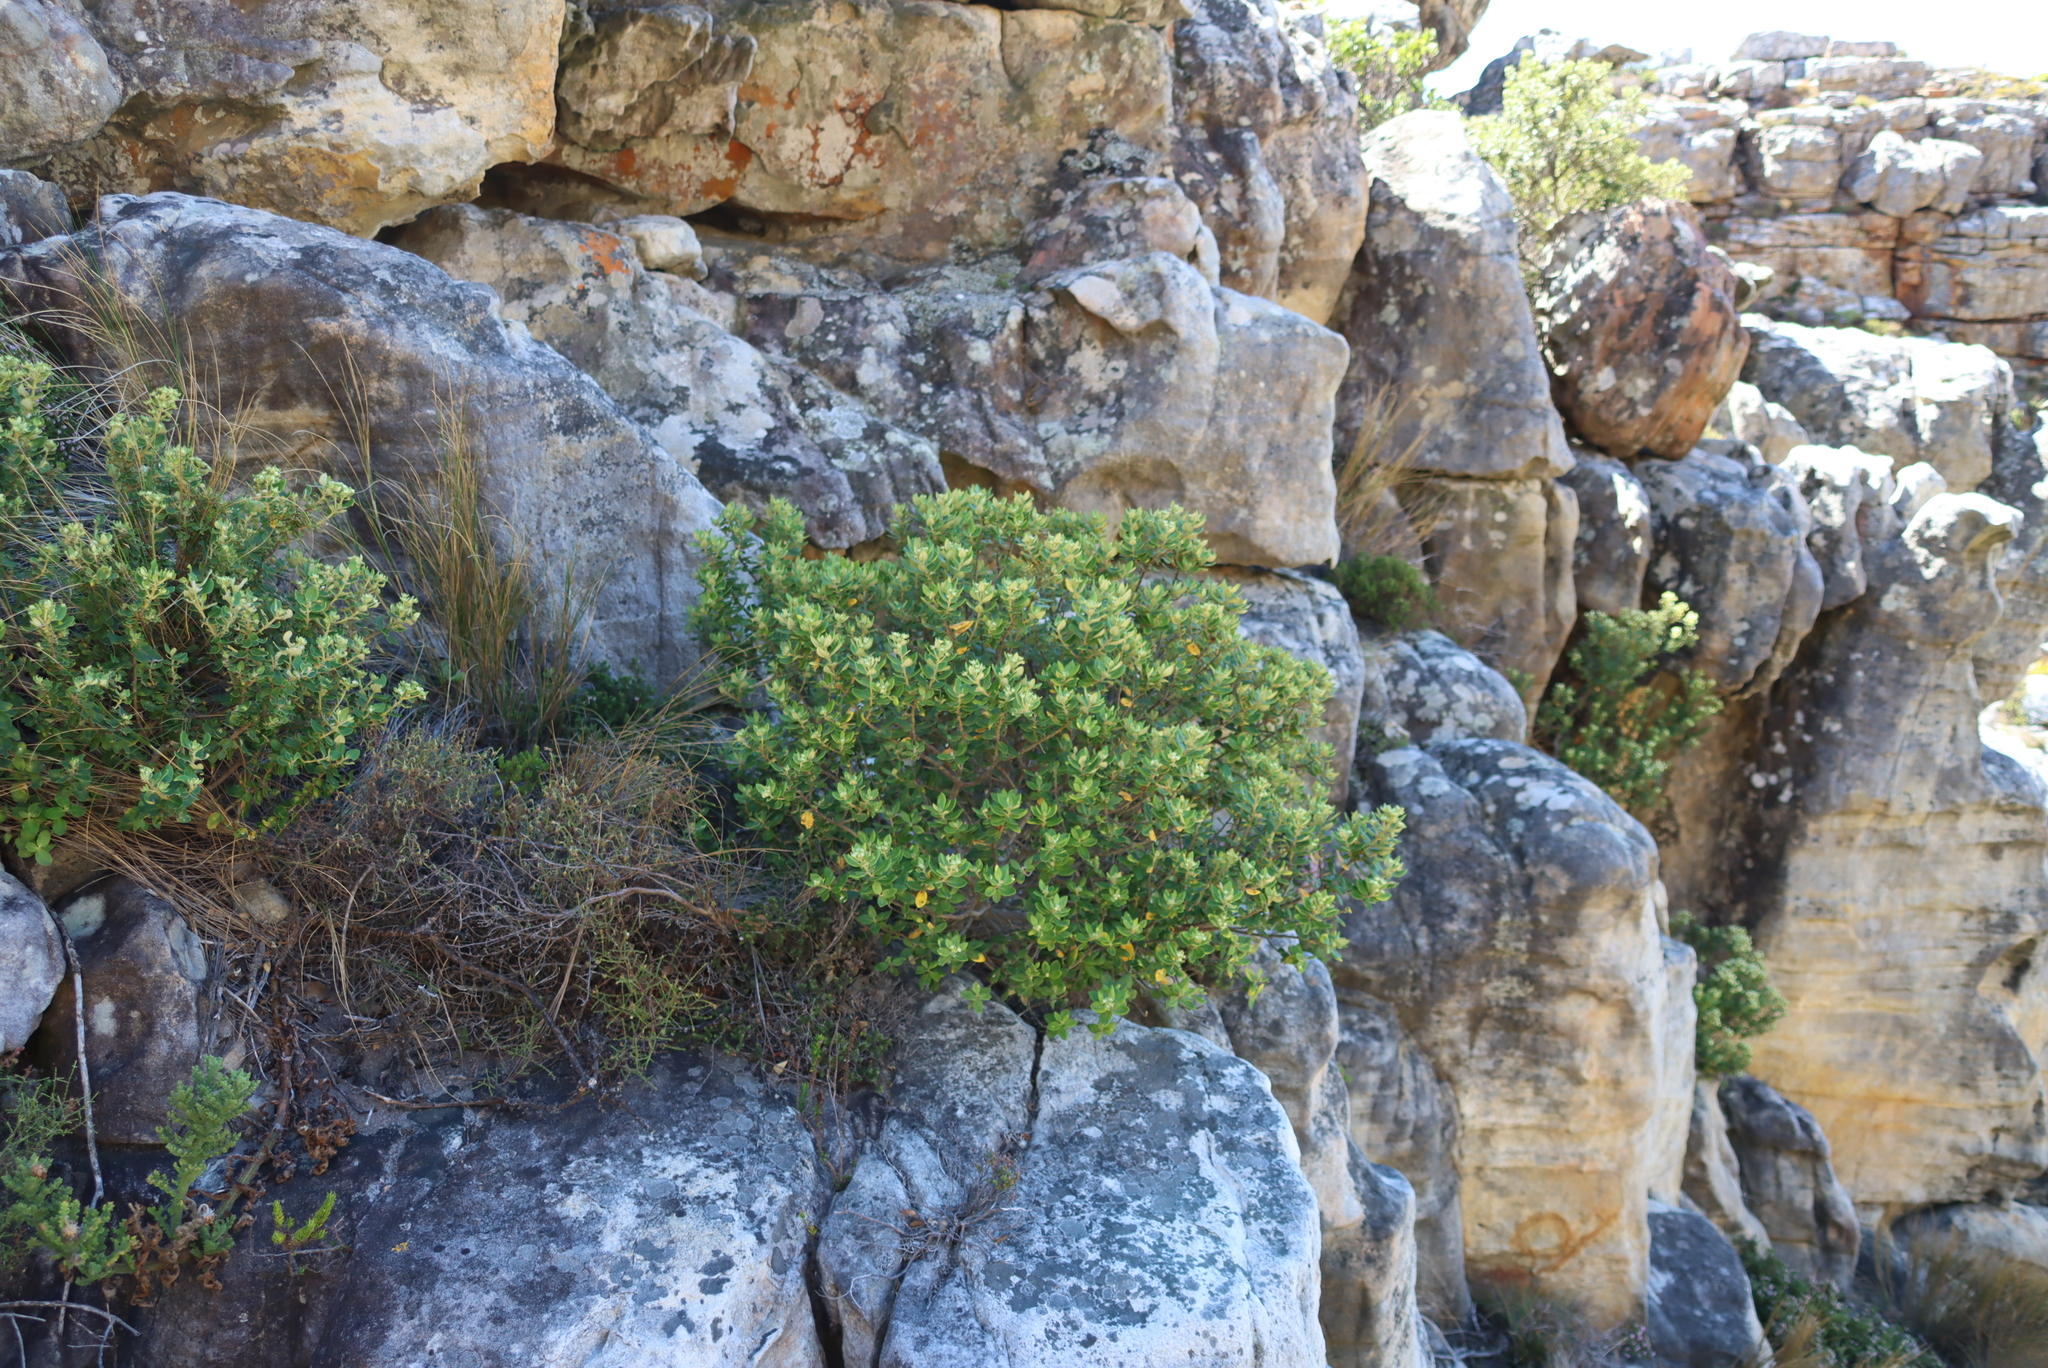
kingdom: Plantae
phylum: Tracheophyta
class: Magnoliopsida
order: Rosales
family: Rhamnaceae
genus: Phylica
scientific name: Phylica buxifolia
